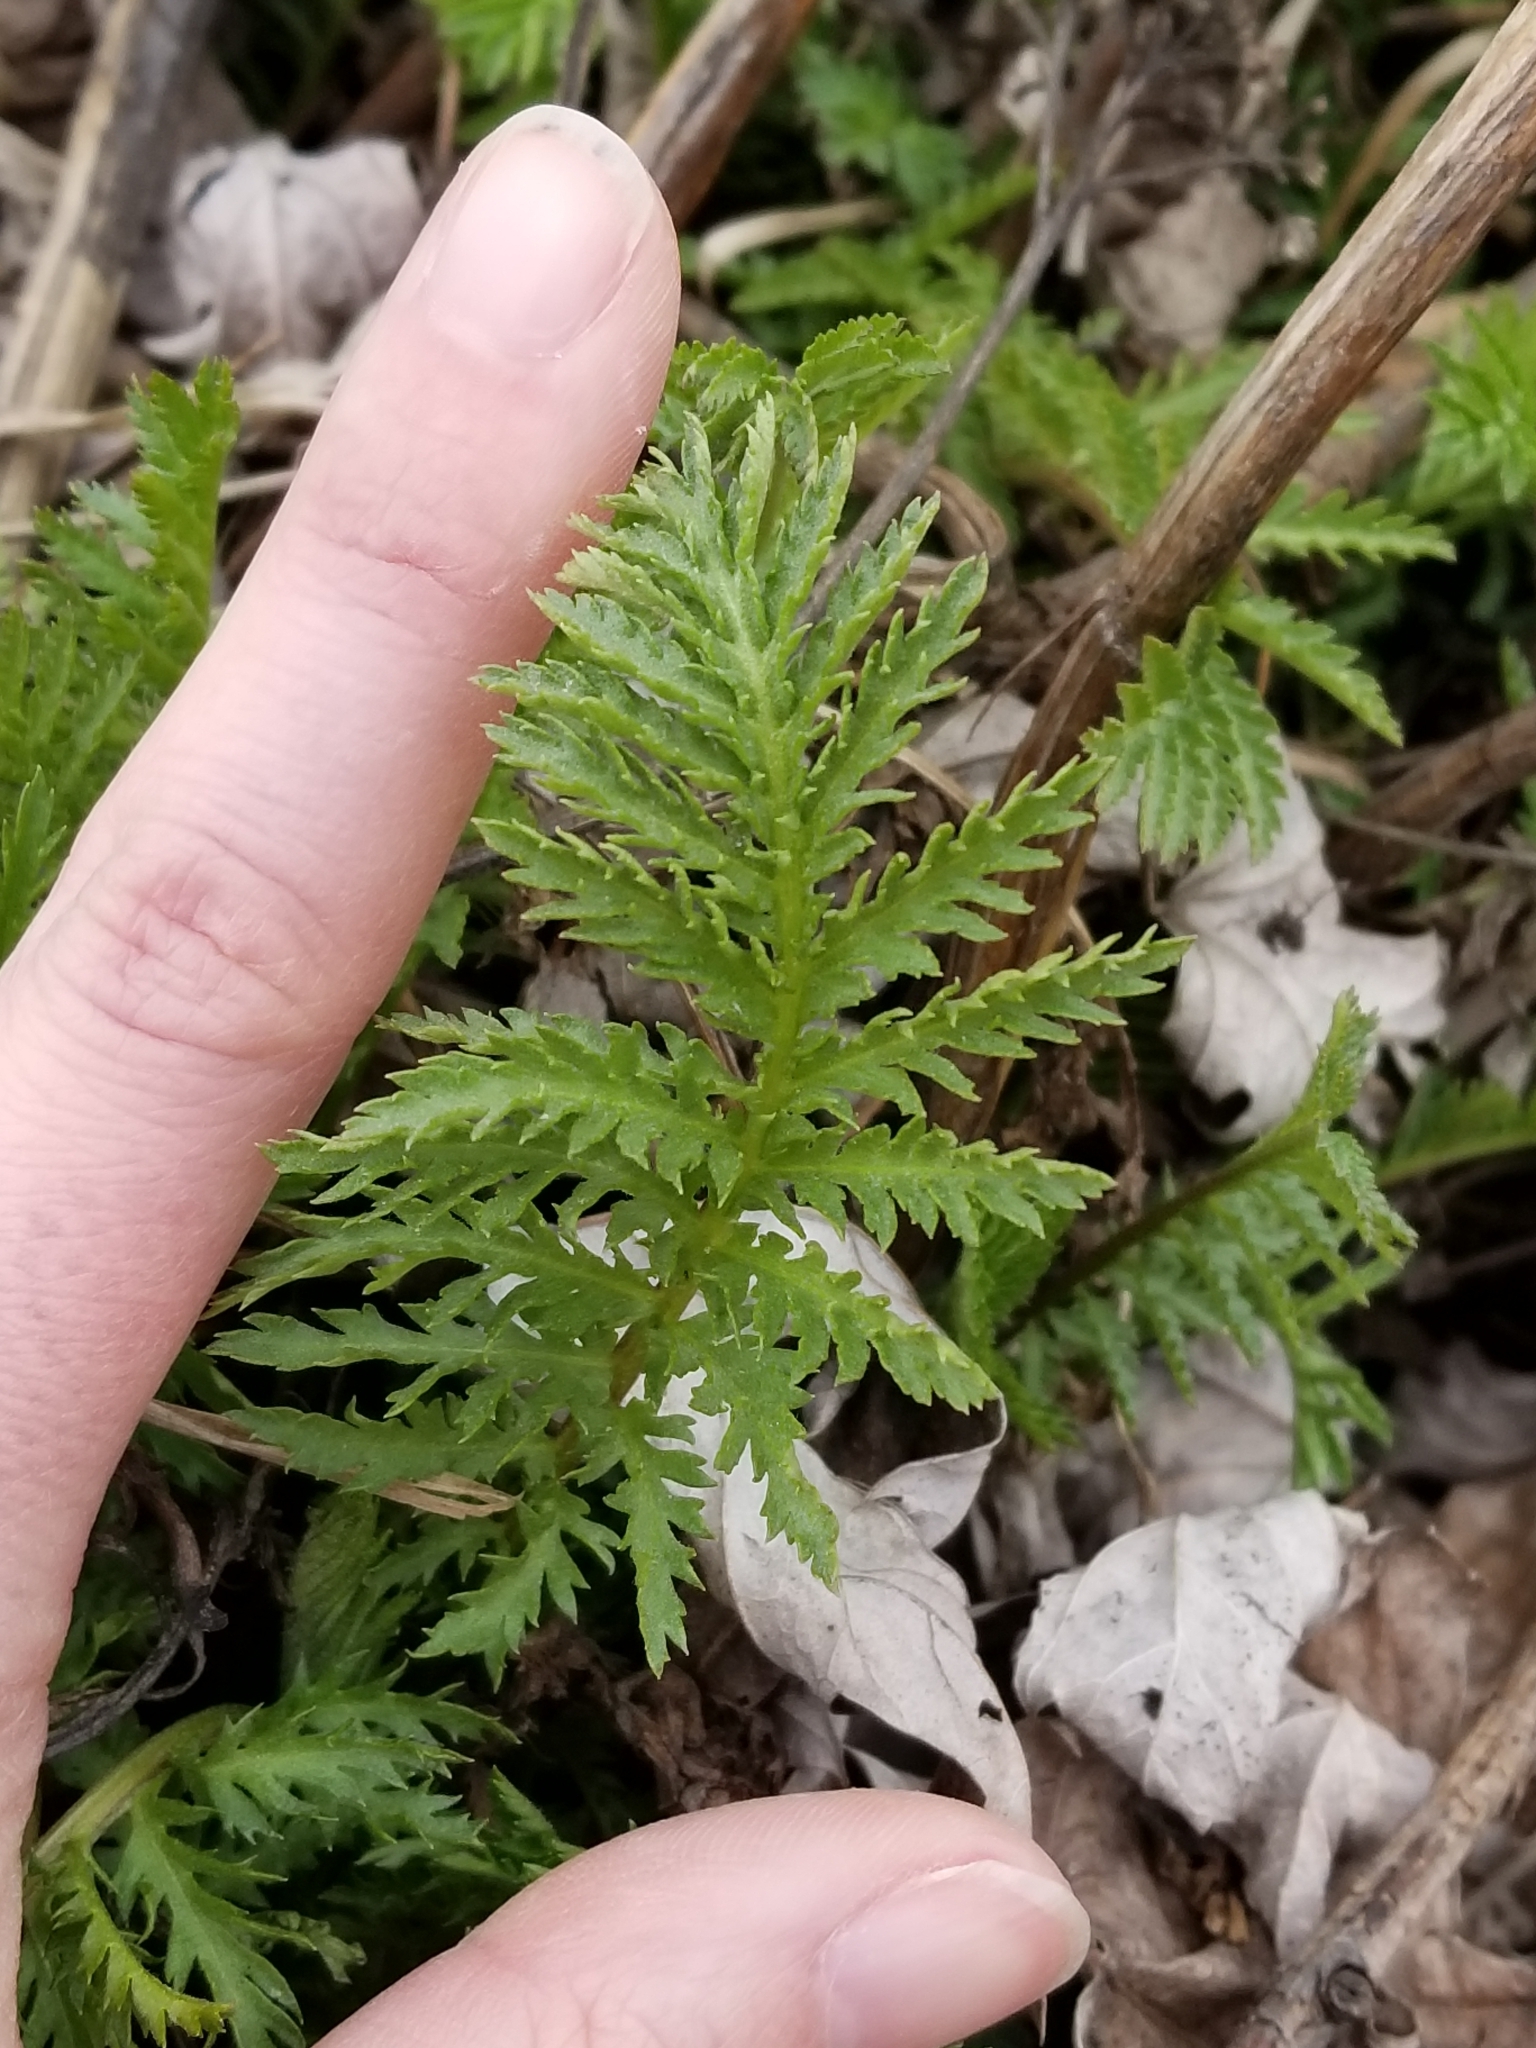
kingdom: Plantae
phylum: Tracheophyta
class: Magnoliopsida
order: Asterales
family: Asteraceae
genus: Tanacetum
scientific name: Tanacetum vulgare
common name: Common tansy
